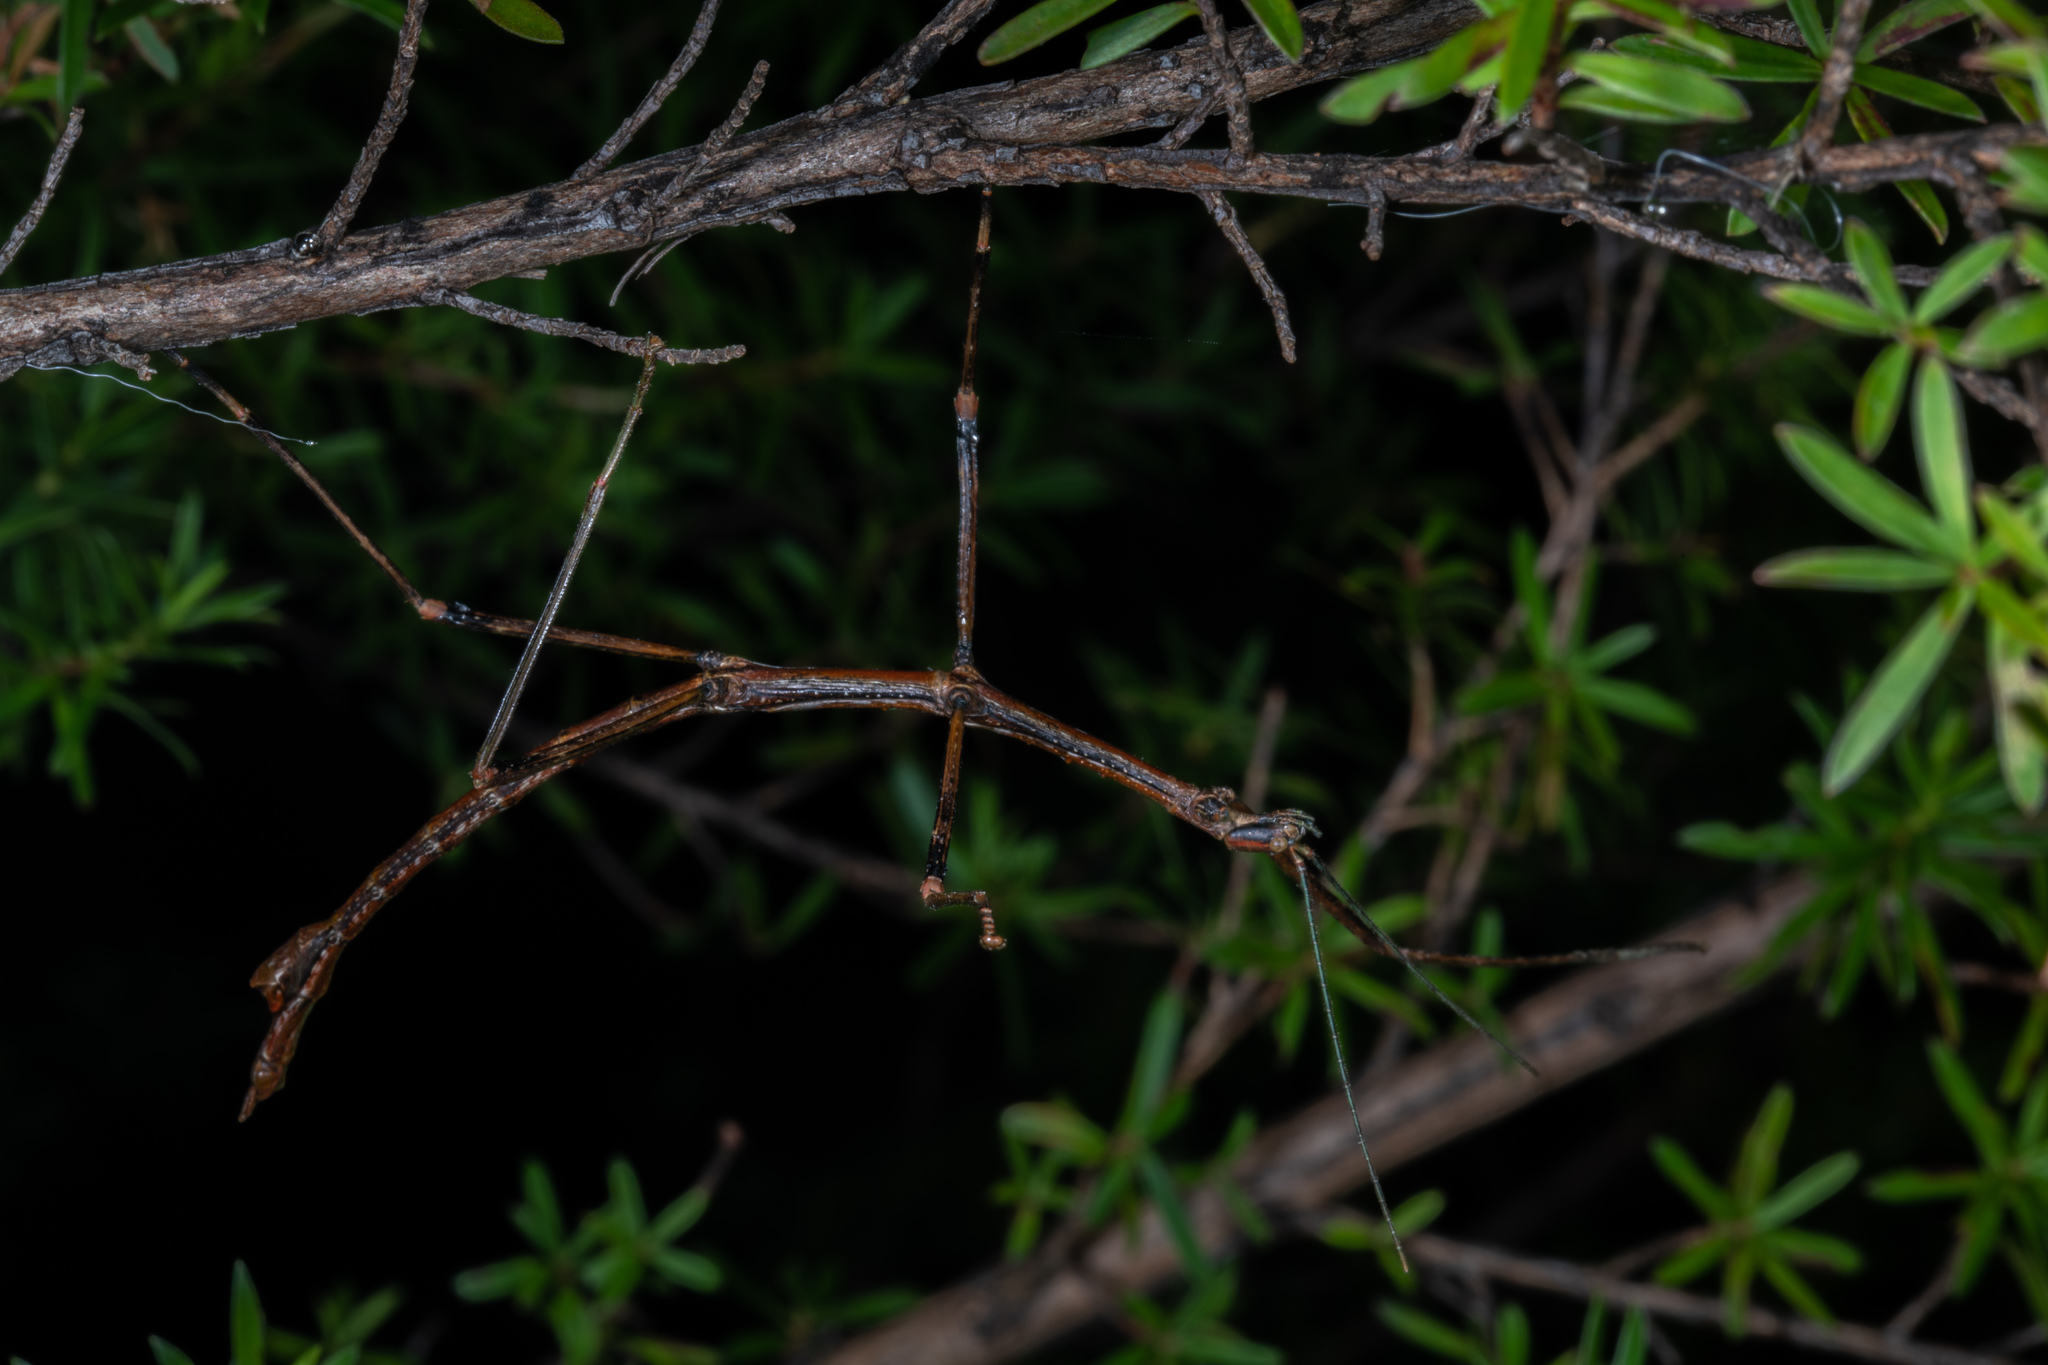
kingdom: Animalia
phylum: Arthropoda
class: Insecta
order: Phasmida
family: Phasmatidae
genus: Clitarchus
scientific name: Clitarchus hookeri
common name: Smooth stick insect
